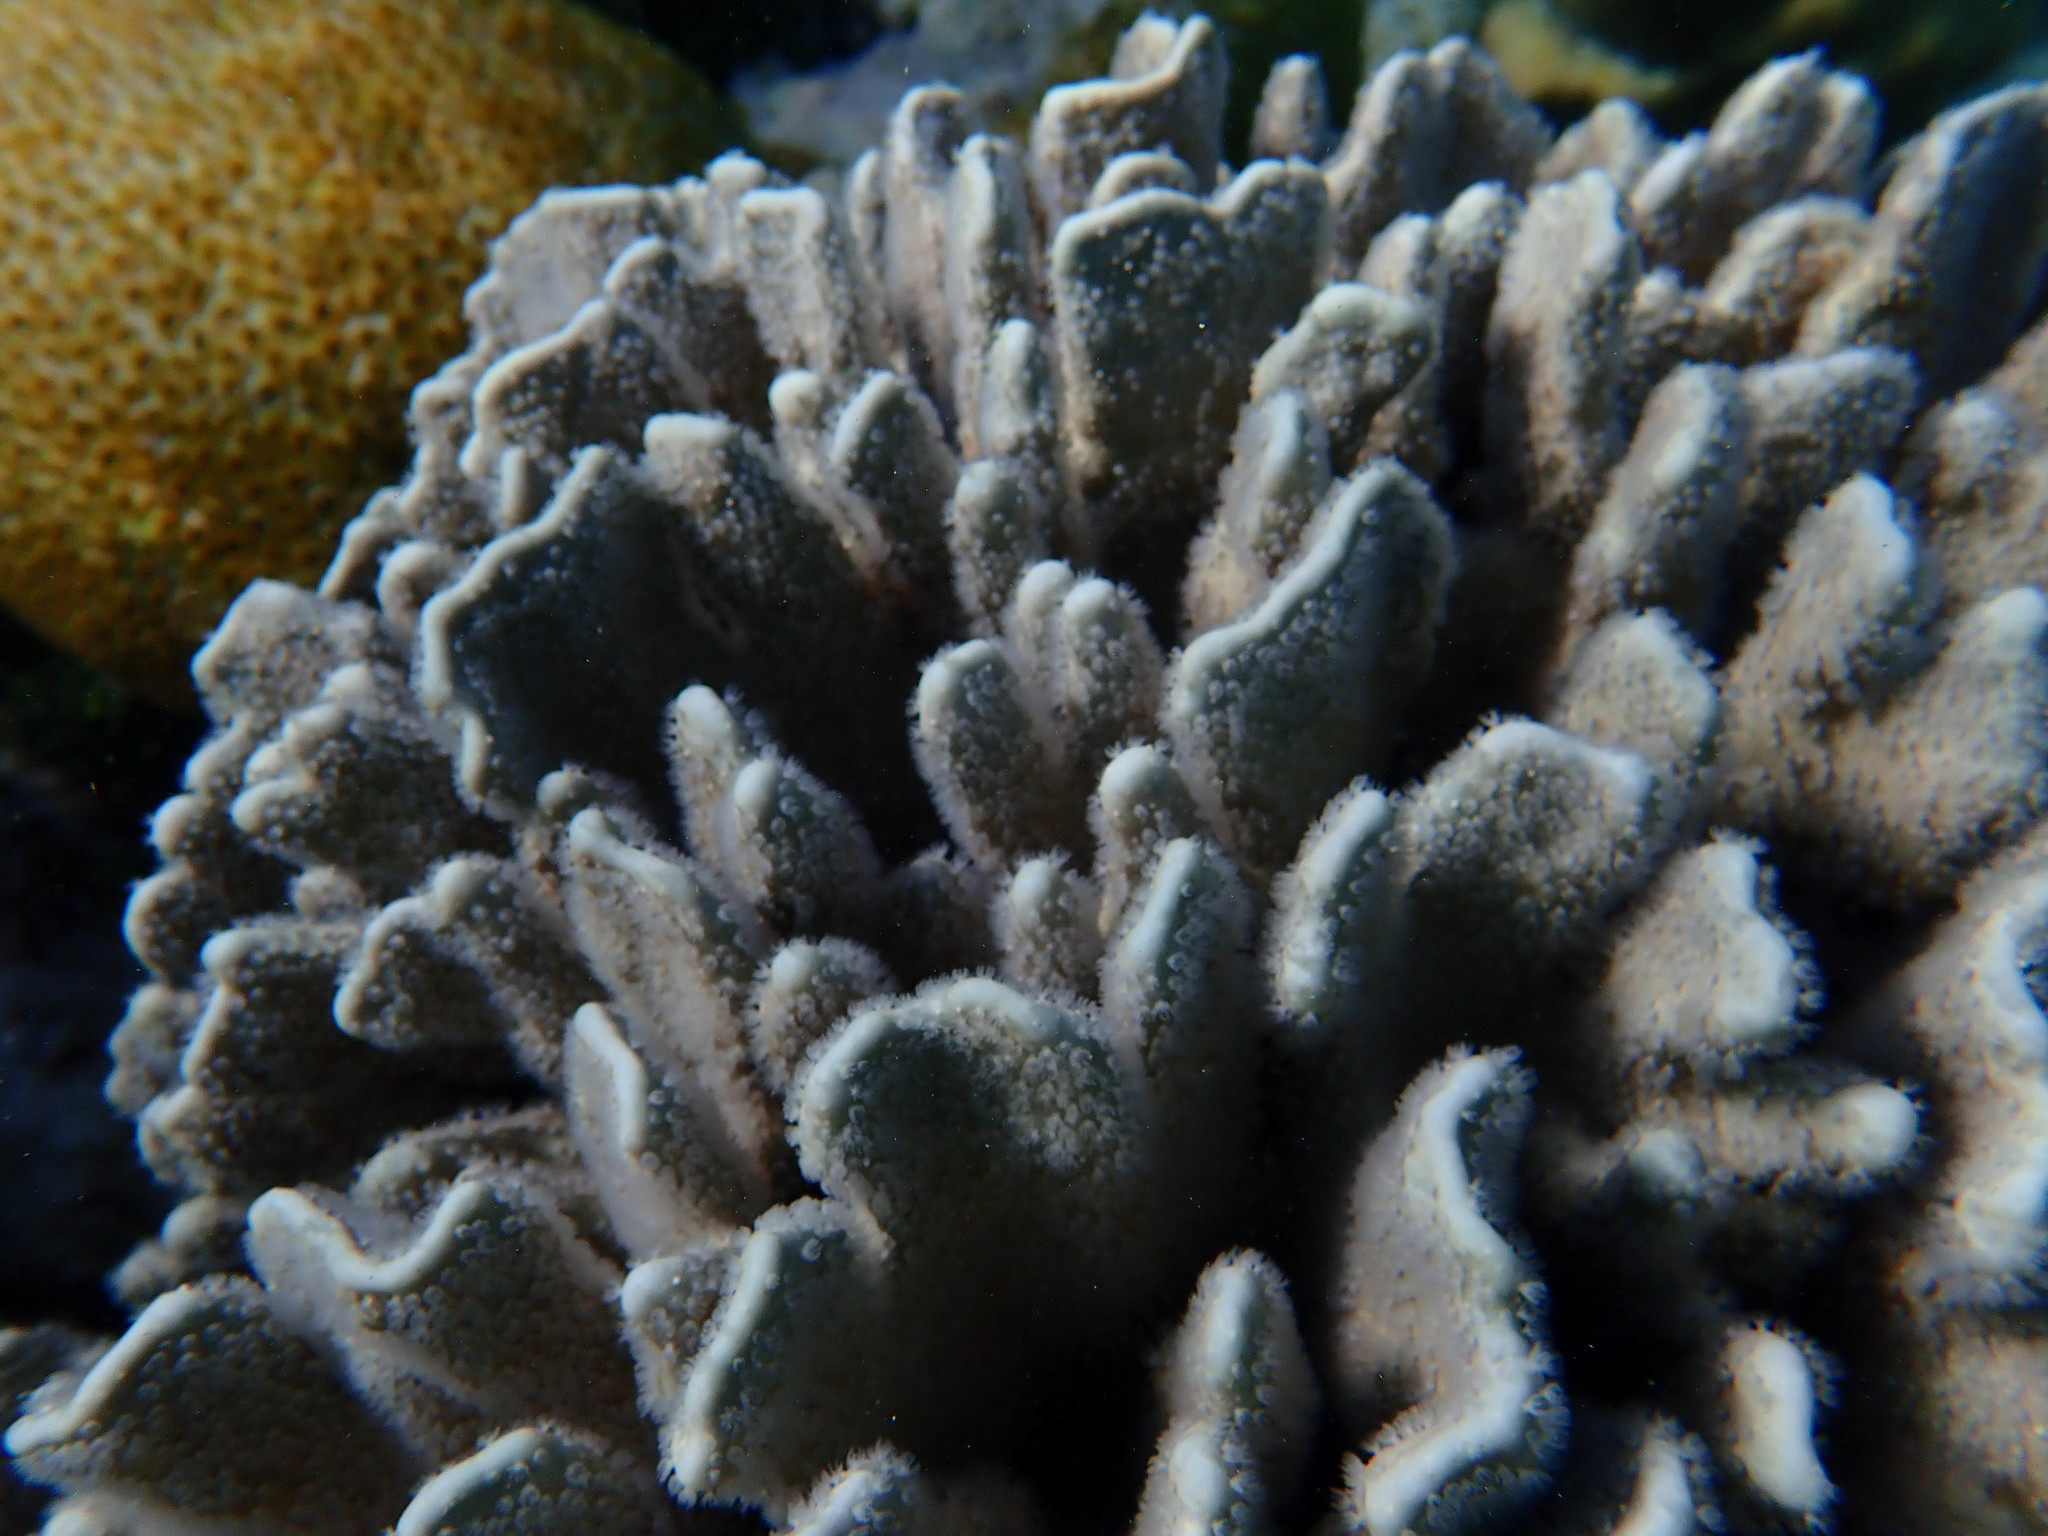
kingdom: Animalia
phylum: Cnidaria
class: Anthozoa
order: Scleralcyonacea
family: Helioporidae
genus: Heliopora
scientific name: Heliopora coerulea
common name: Blue coral
